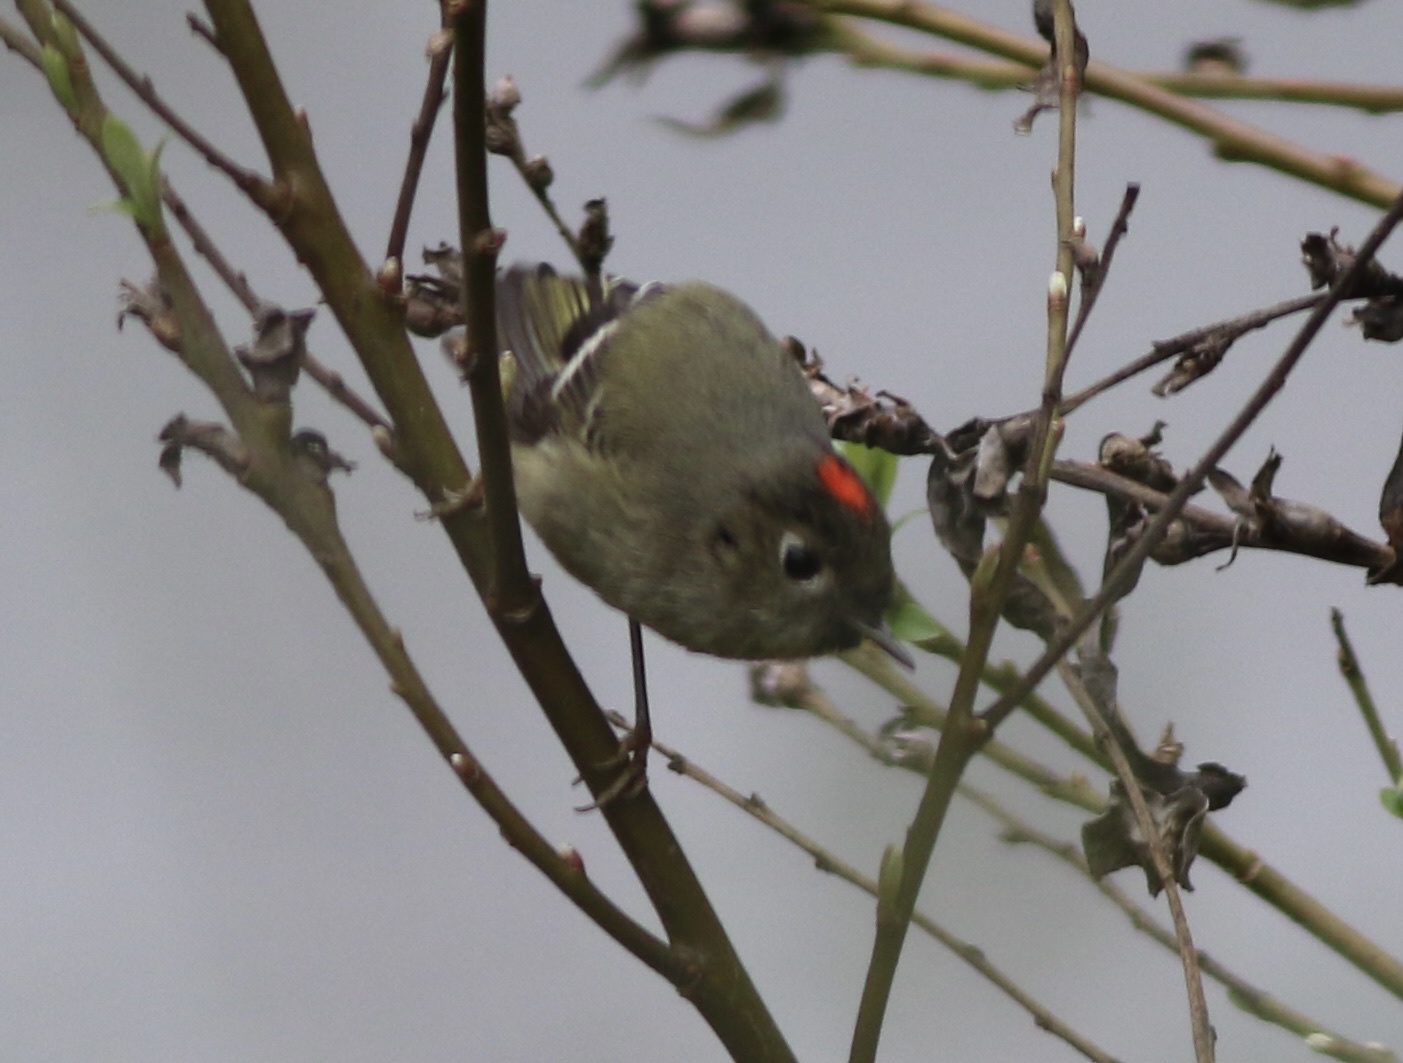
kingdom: Animalia
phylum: Chordata
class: Aves
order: Passeriformes
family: Regulidae
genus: Regulus
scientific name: Regulus calendula
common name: Ruby-crowned kinglet
